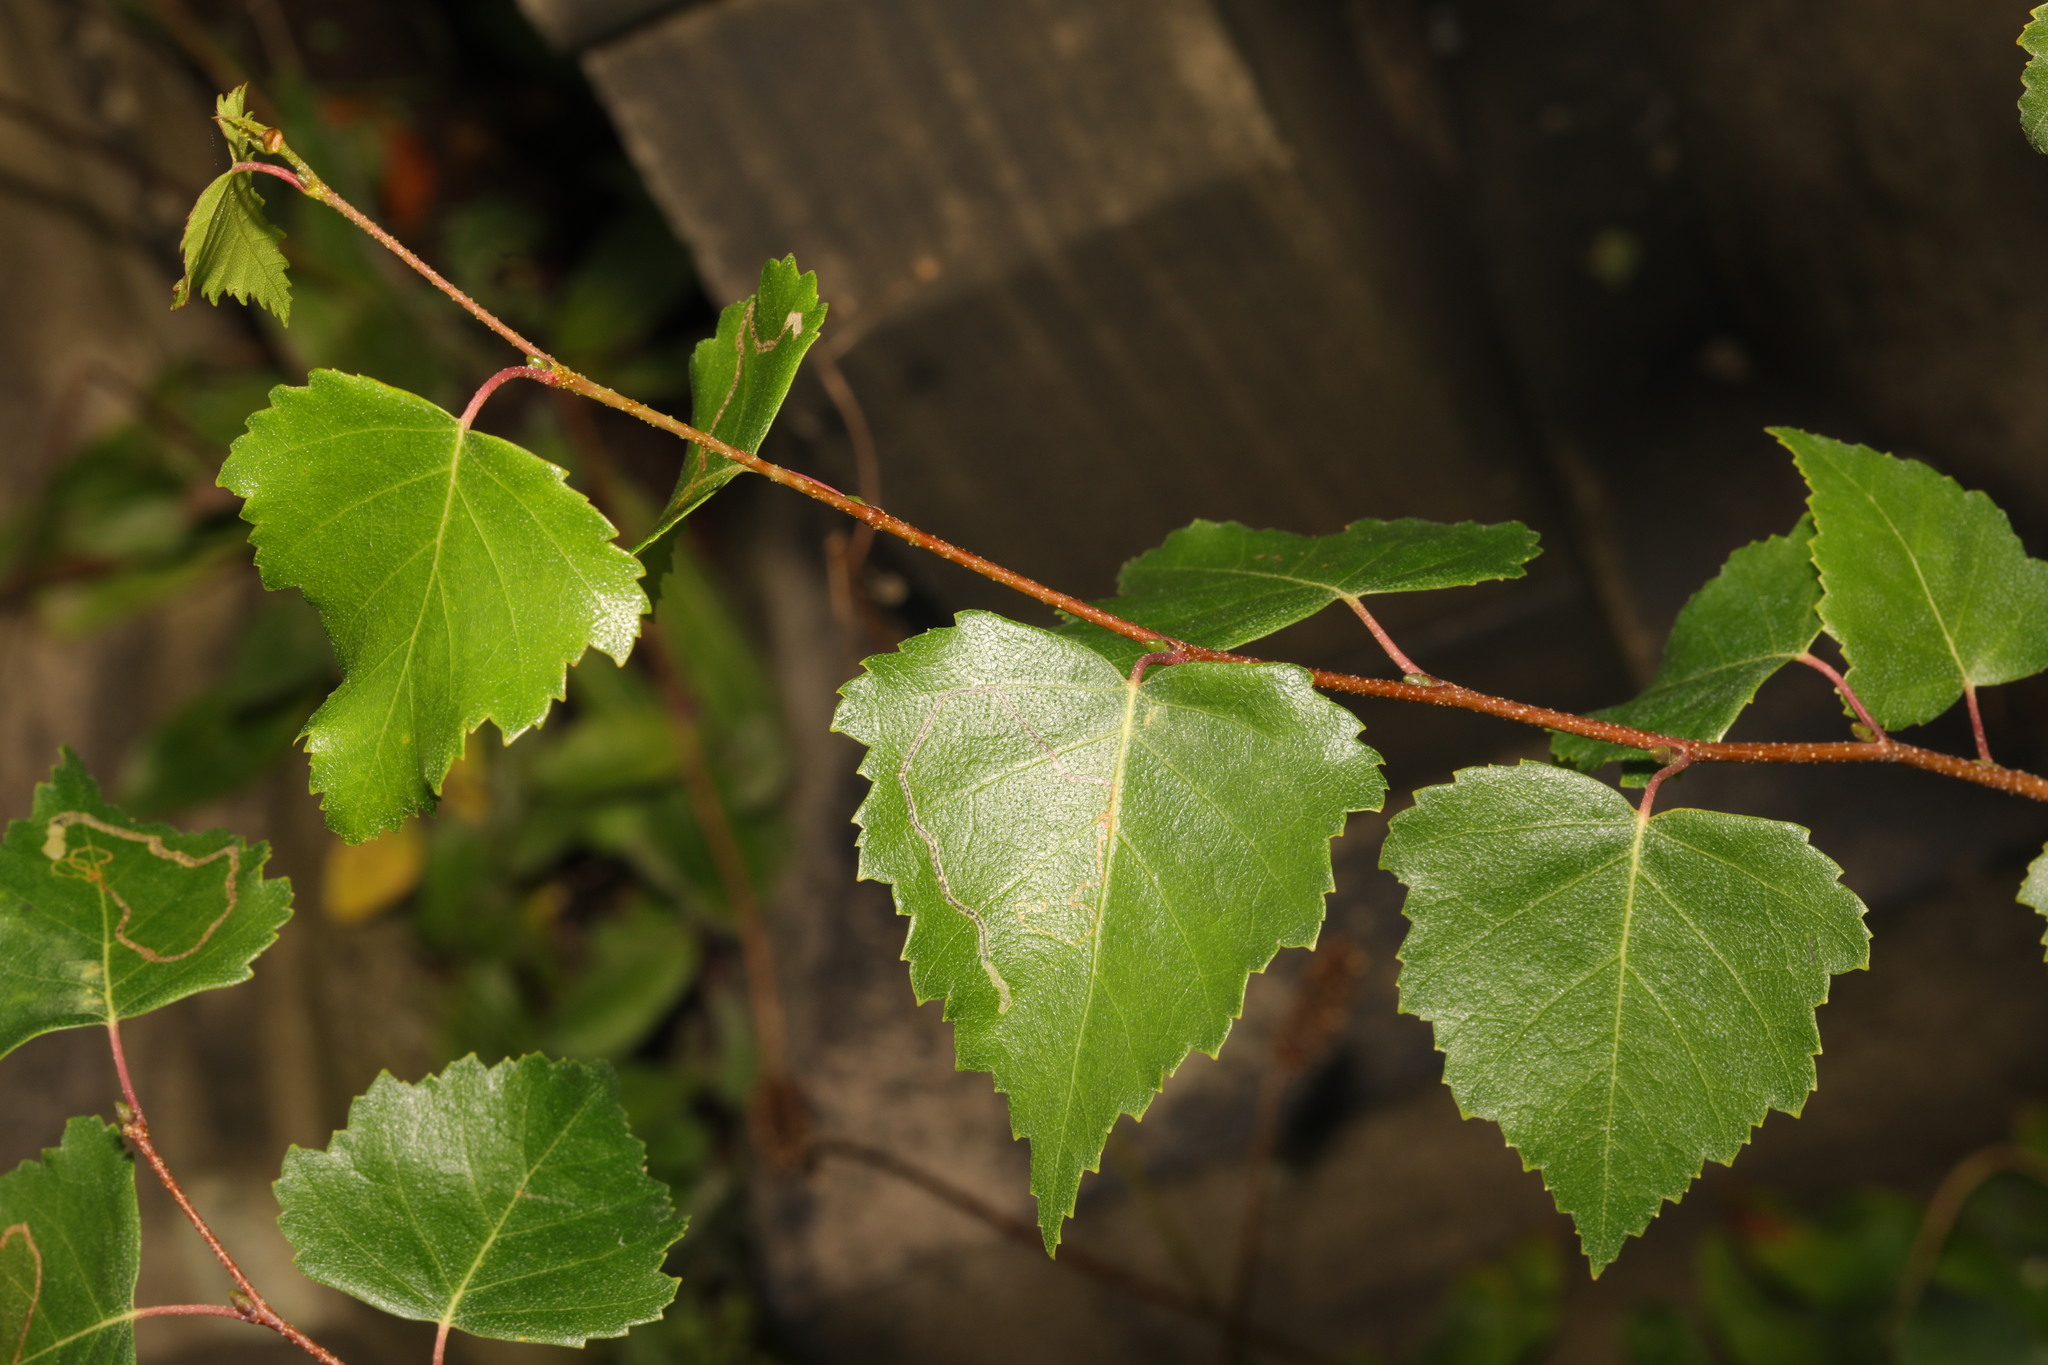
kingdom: Plantae
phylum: Tracheophyta
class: Magnoliopsida
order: Fagales
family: Betulaceae
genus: Betula
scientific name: Betula pendula
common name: Silver birch
